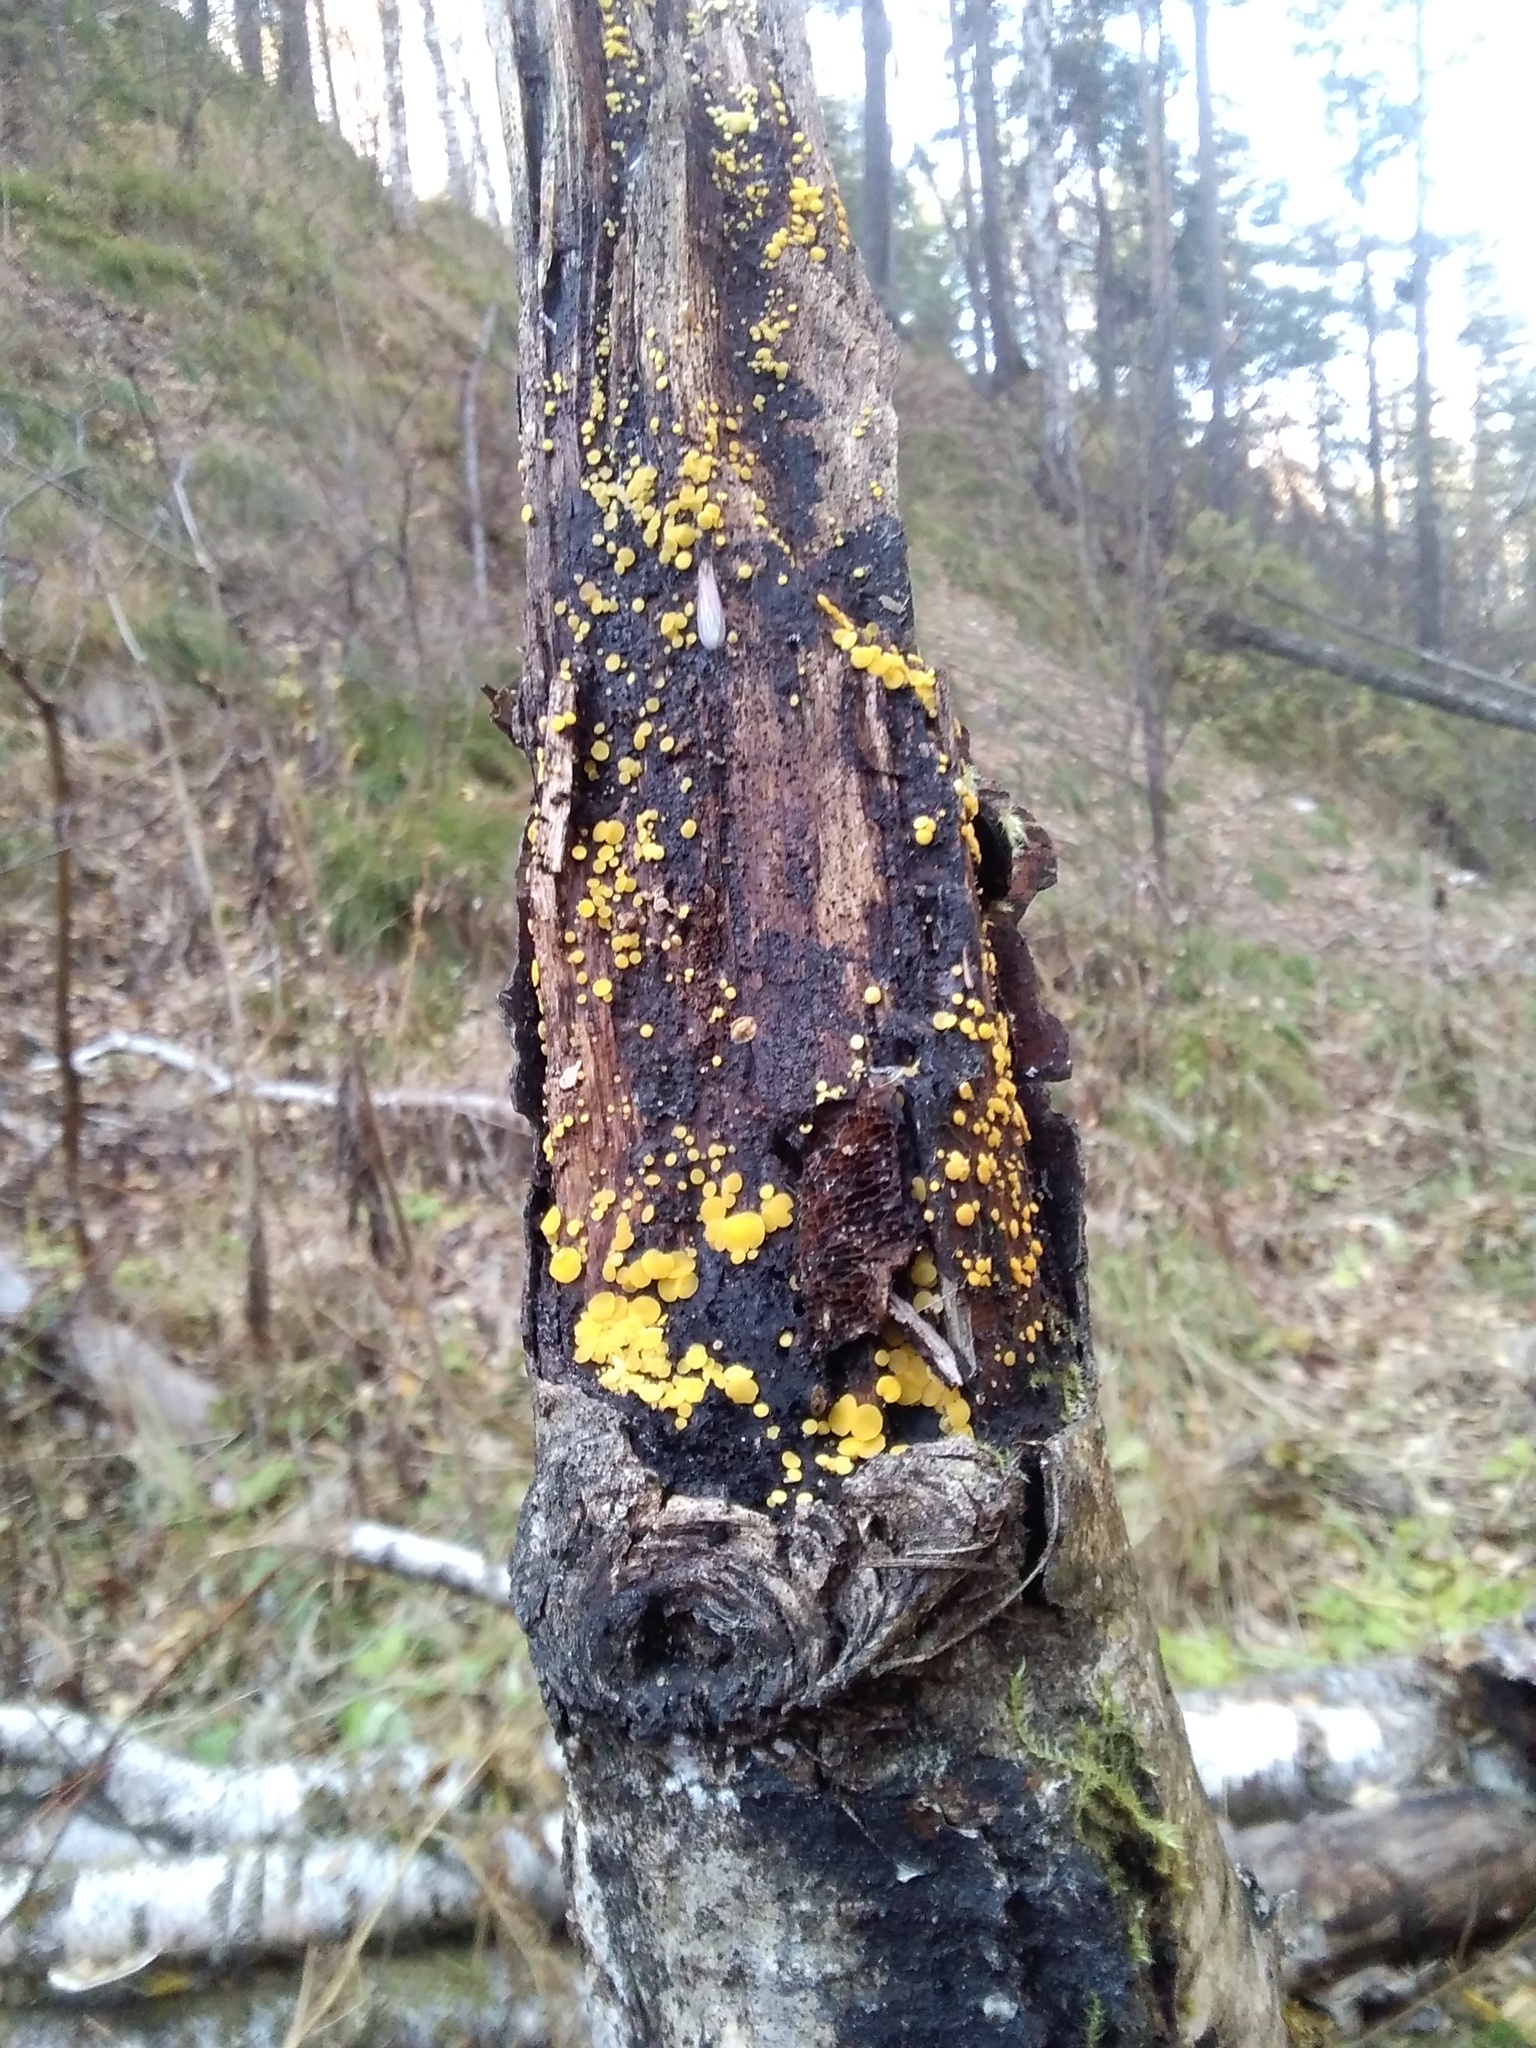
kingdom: Fungi
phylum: Ascomycota
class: Leotiomycetes
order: Helotiales
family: Pezizellaceae
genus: Calycina
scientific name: Calycina citrina
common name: Yellow fairy cups
